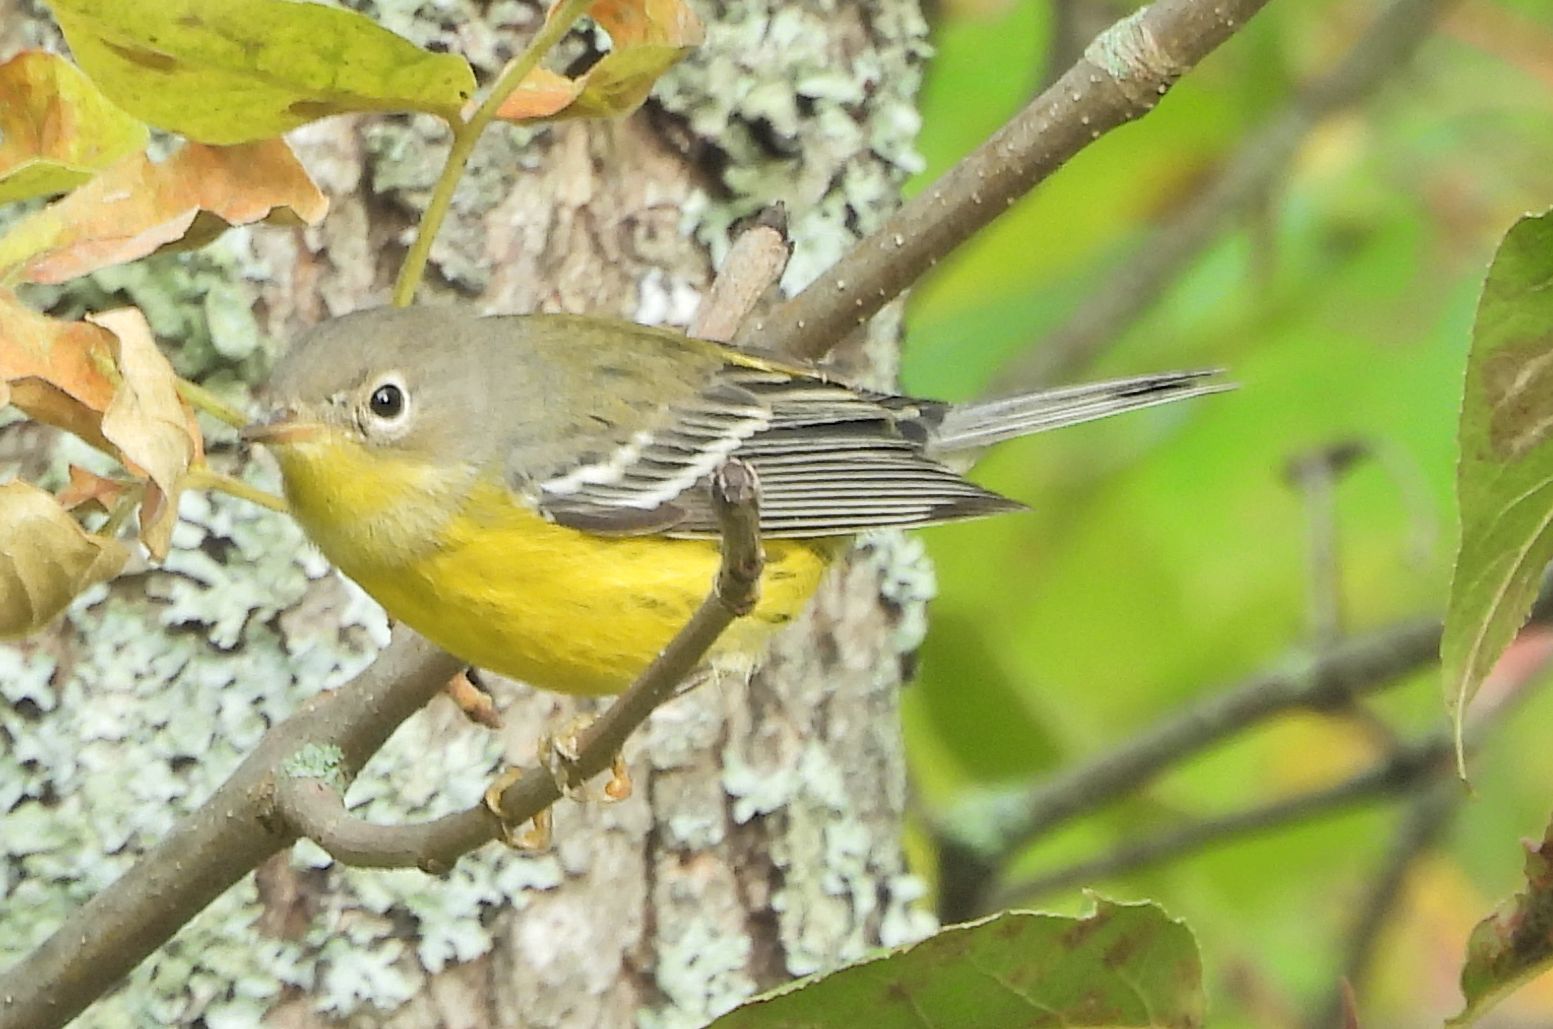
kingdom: Animalia
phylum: Chordata
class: Aves
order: Passeriformes
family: Parulidae
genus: Setophaga
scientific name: Setophaga magnolia
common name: Magnolia warbler
